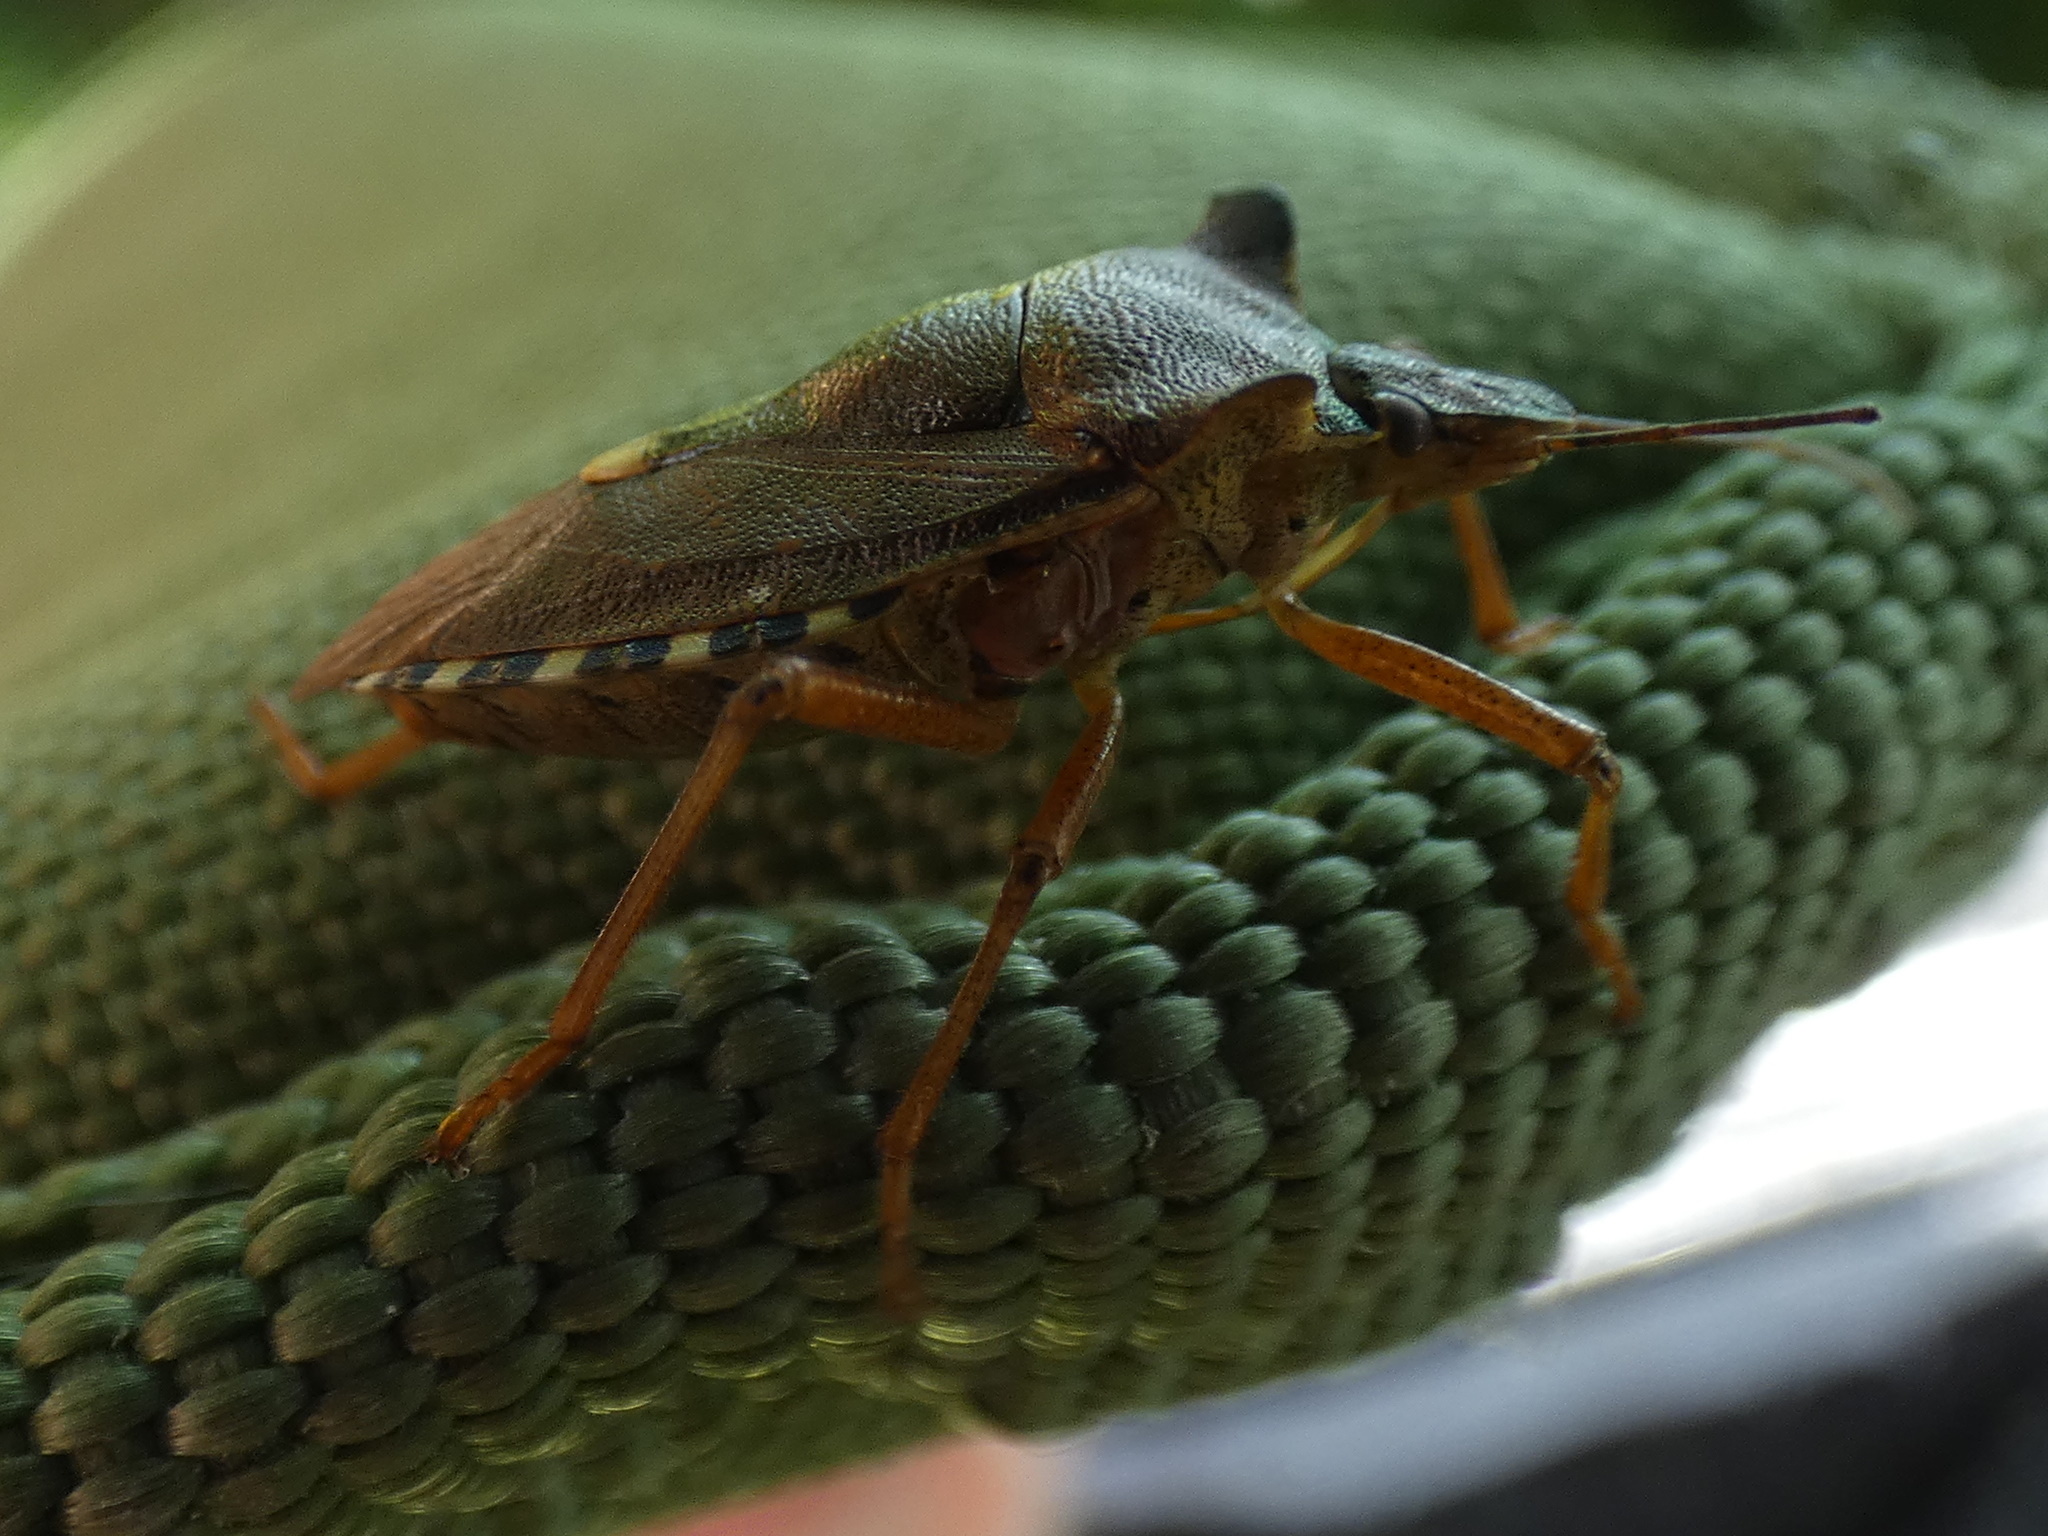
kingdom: Animalia
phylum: Arthropoda
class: Insecta
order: Hemiptera
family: Pentatomidae
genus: Pentatoma
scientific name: Pentatoma rufipes
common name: Forest bug
